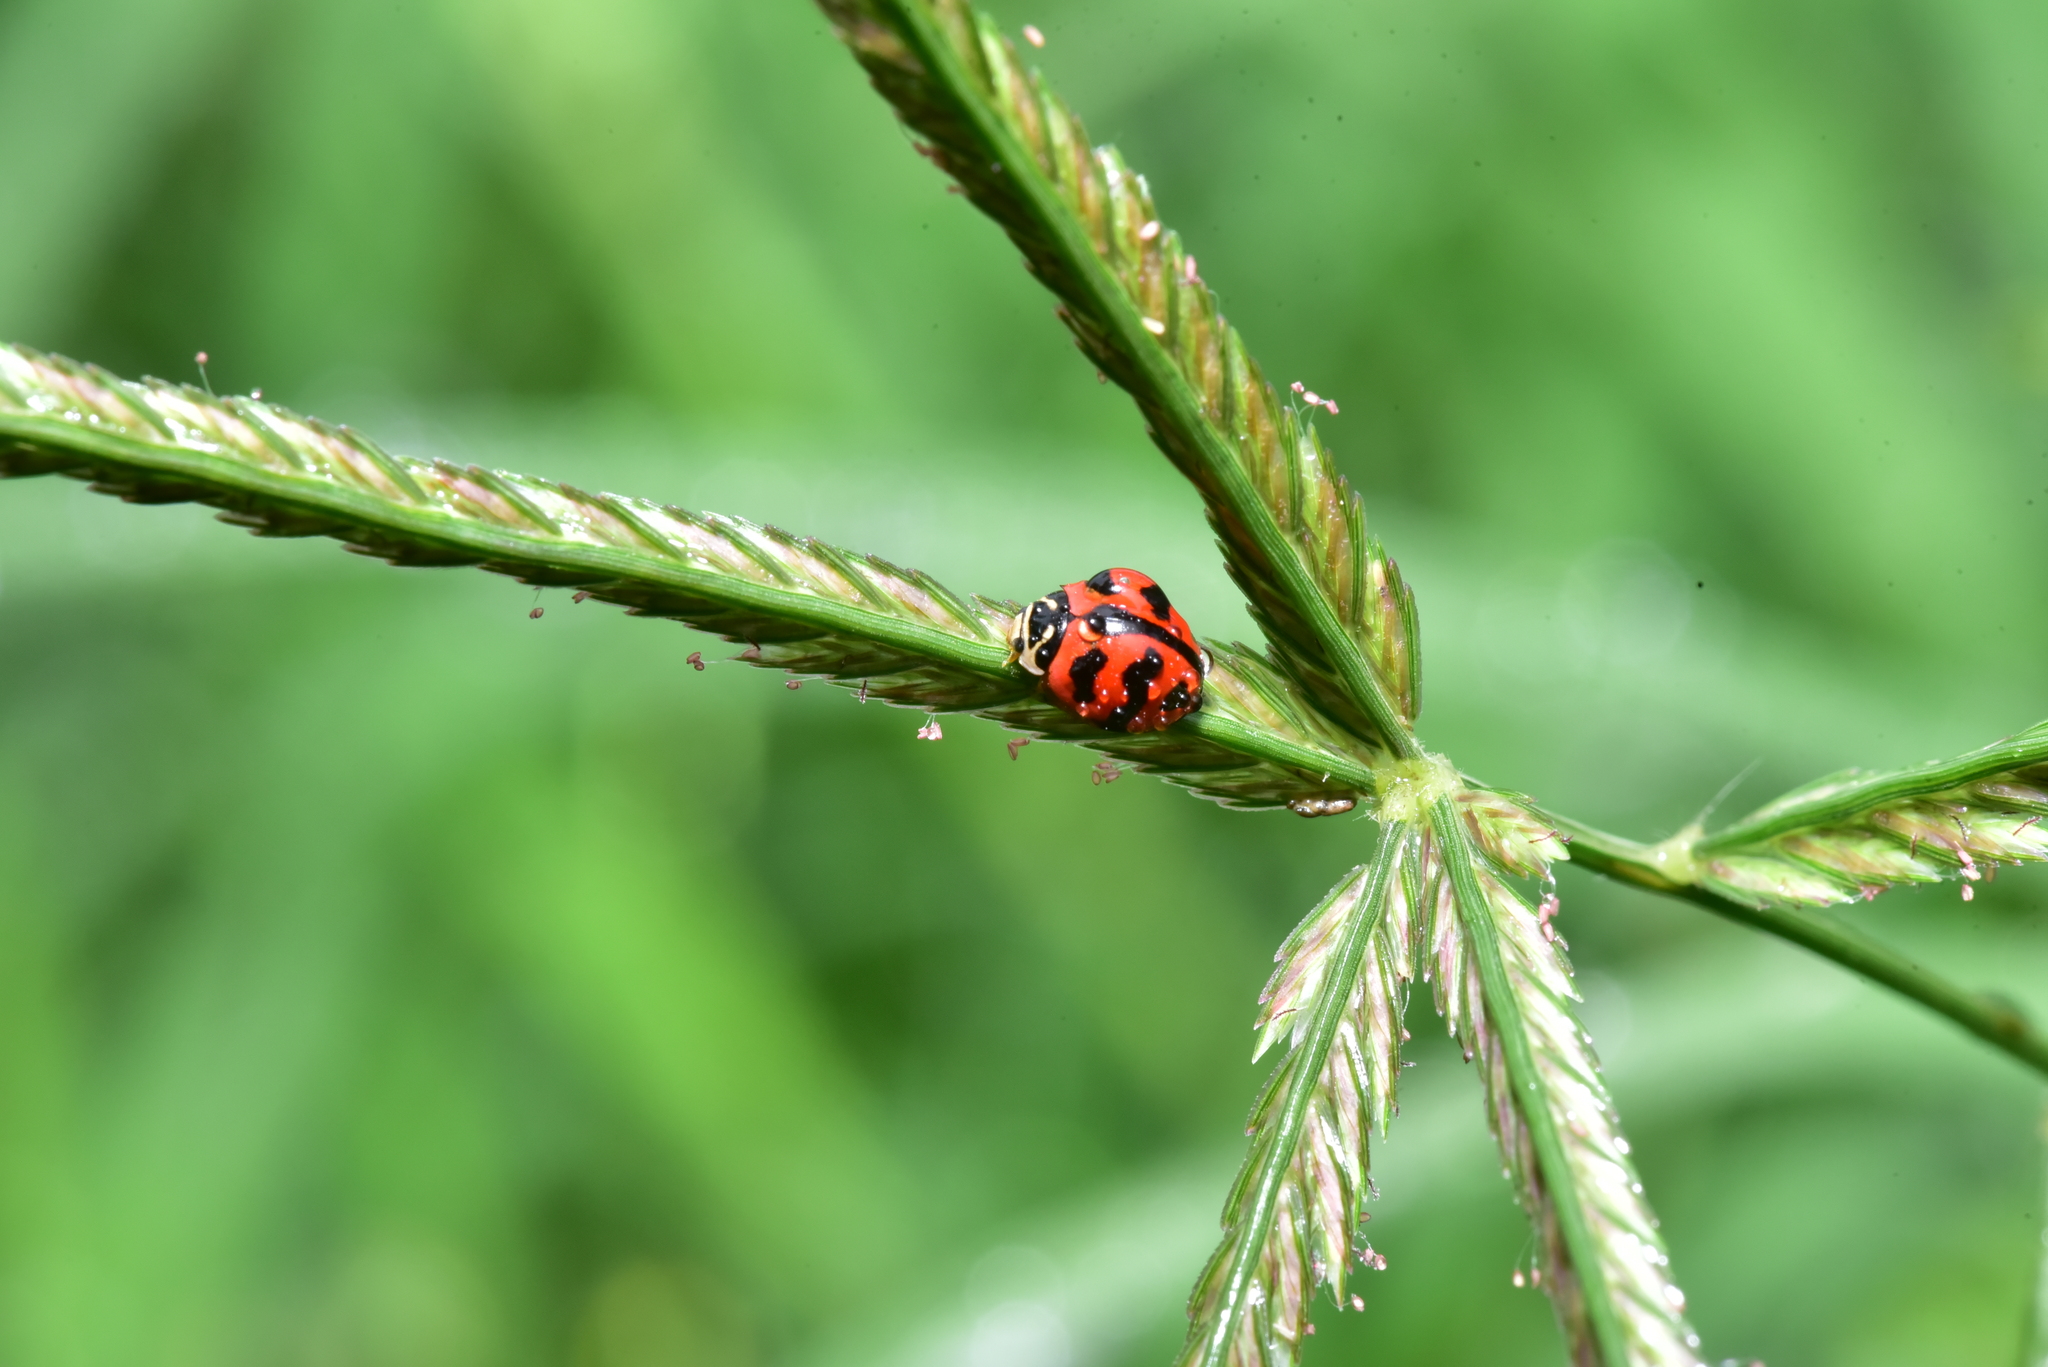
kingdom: Animalia
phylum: Arthropoda
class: Insecta
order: Coleoptera
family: Coccinellidae
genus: Cheilomenes
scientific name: Cheilomenes sexmaculata
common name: Ladybird beetle
